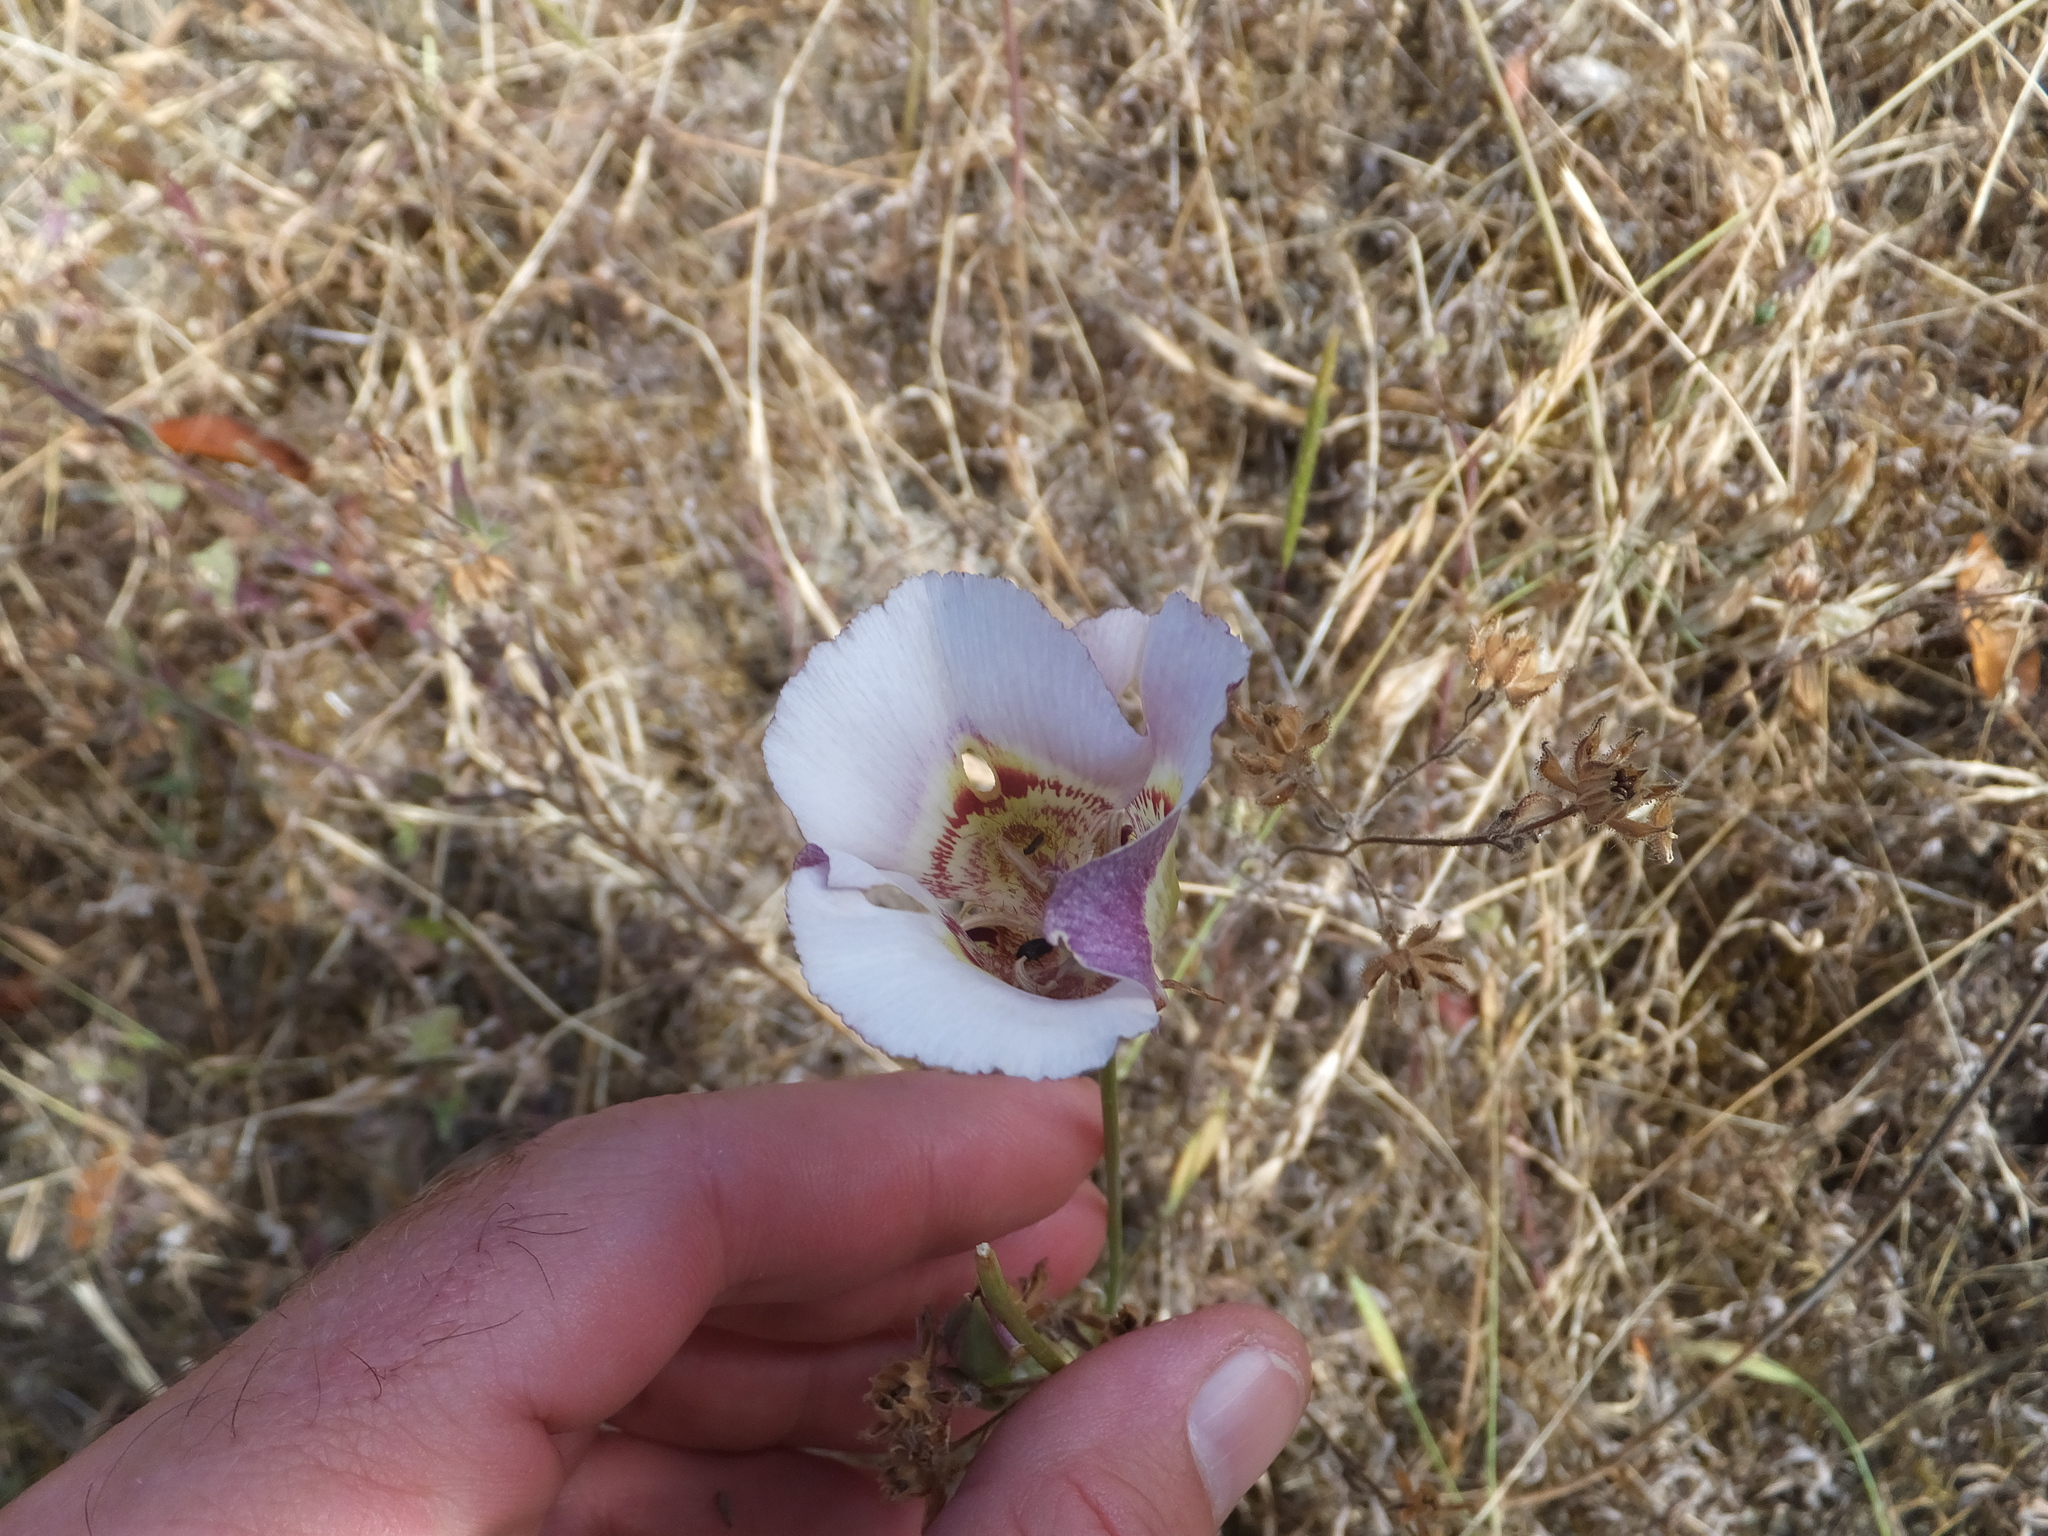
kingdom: Plantae
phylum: Tracheophyta
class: Liliopsida
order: Liliales
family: Liliaceae
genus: Calochortus
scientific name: Calochortus argillosus
